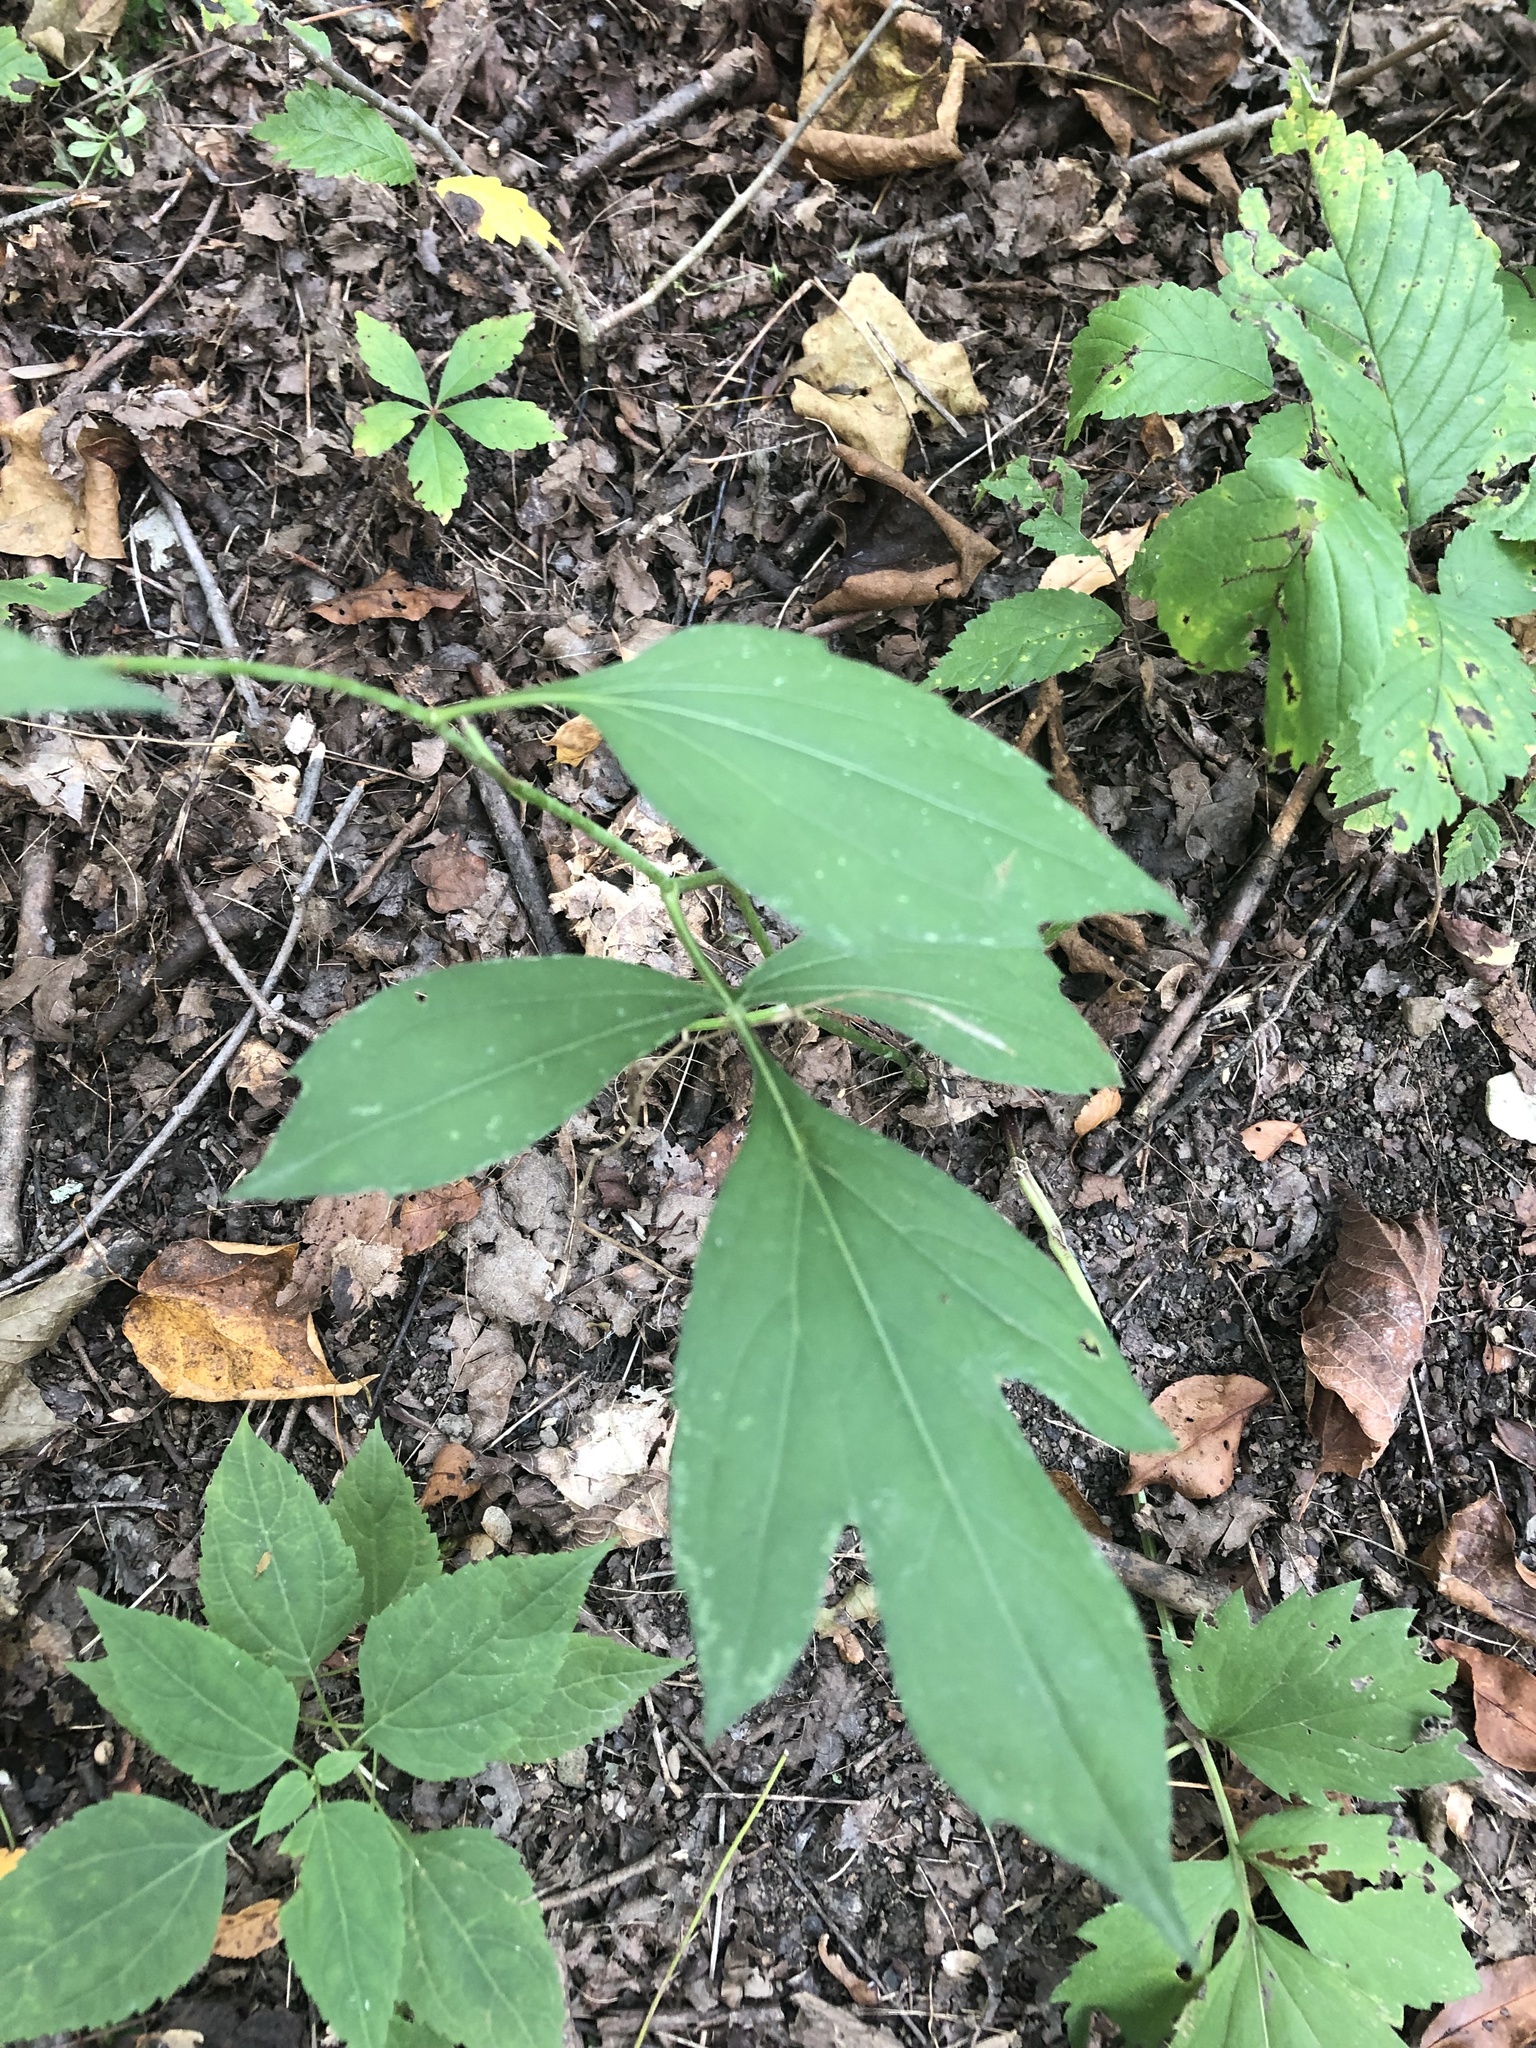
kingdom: Plantae
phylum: Tracheophyta
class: Magnoliopsida
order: Asterales
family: Asteraceae
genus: Rudbeckia
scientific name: Rudbeckia laciniata
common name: Coneflower
